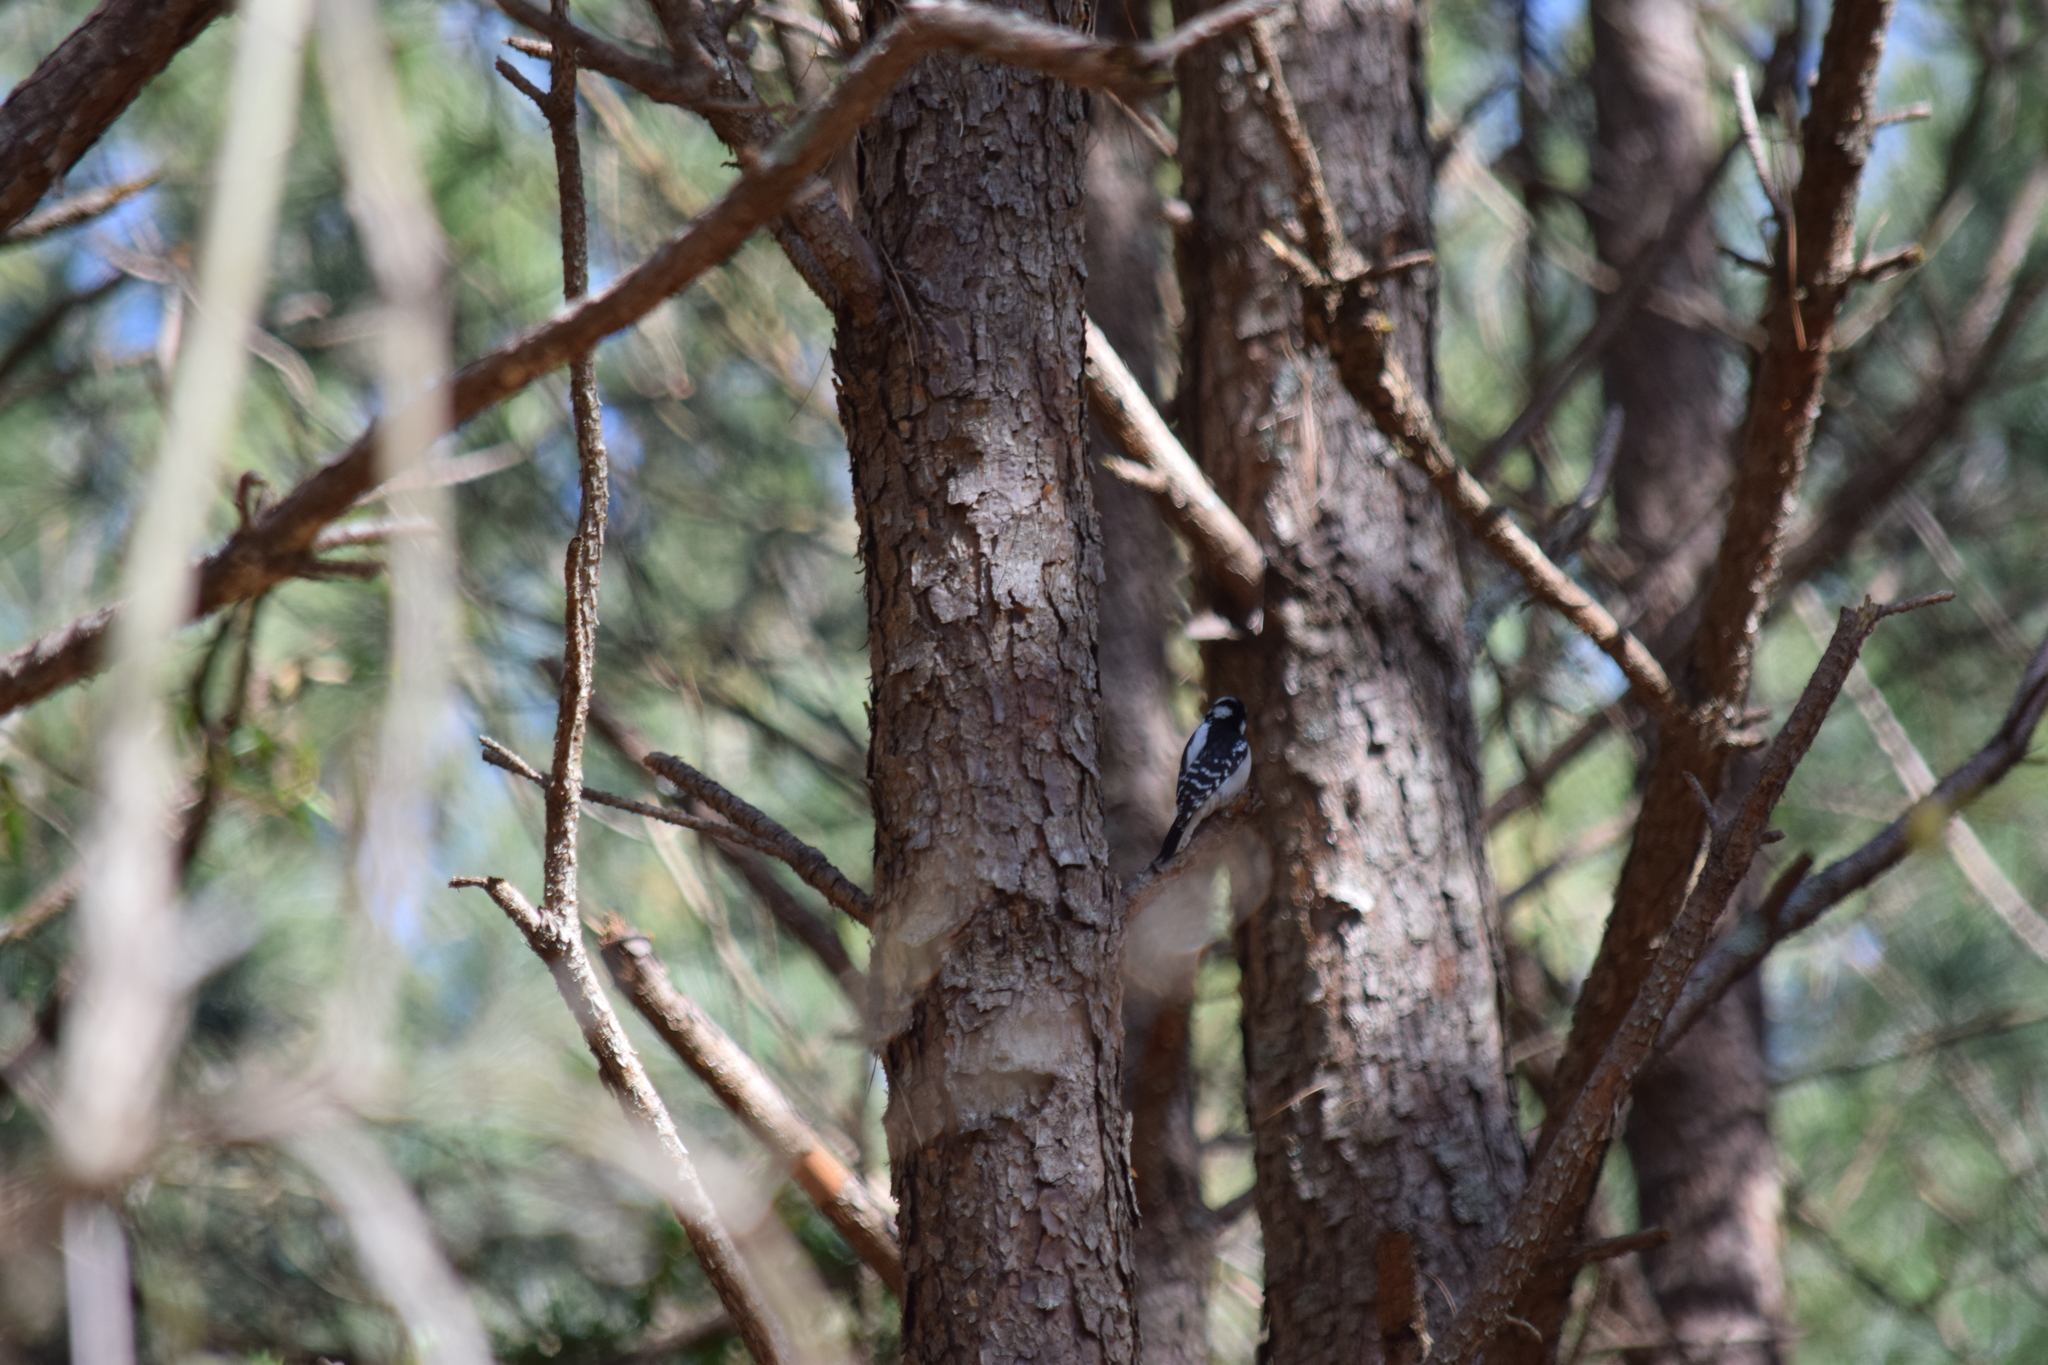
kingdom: Animalia
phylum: Chordata
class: Aves
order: Piciformes
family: Picidae
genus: Dryobates
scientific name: Dryobates pubescens
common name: Downy woodpecker
